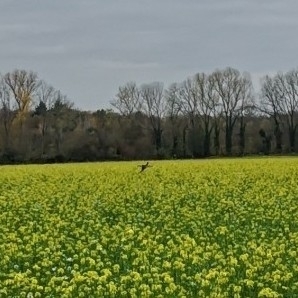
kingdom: Animalia
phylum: Chordata
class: Aves
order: Galliformes
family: Phasianidae
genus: Phasianus
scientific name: Phasianus colchicus
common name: Common pheasant
